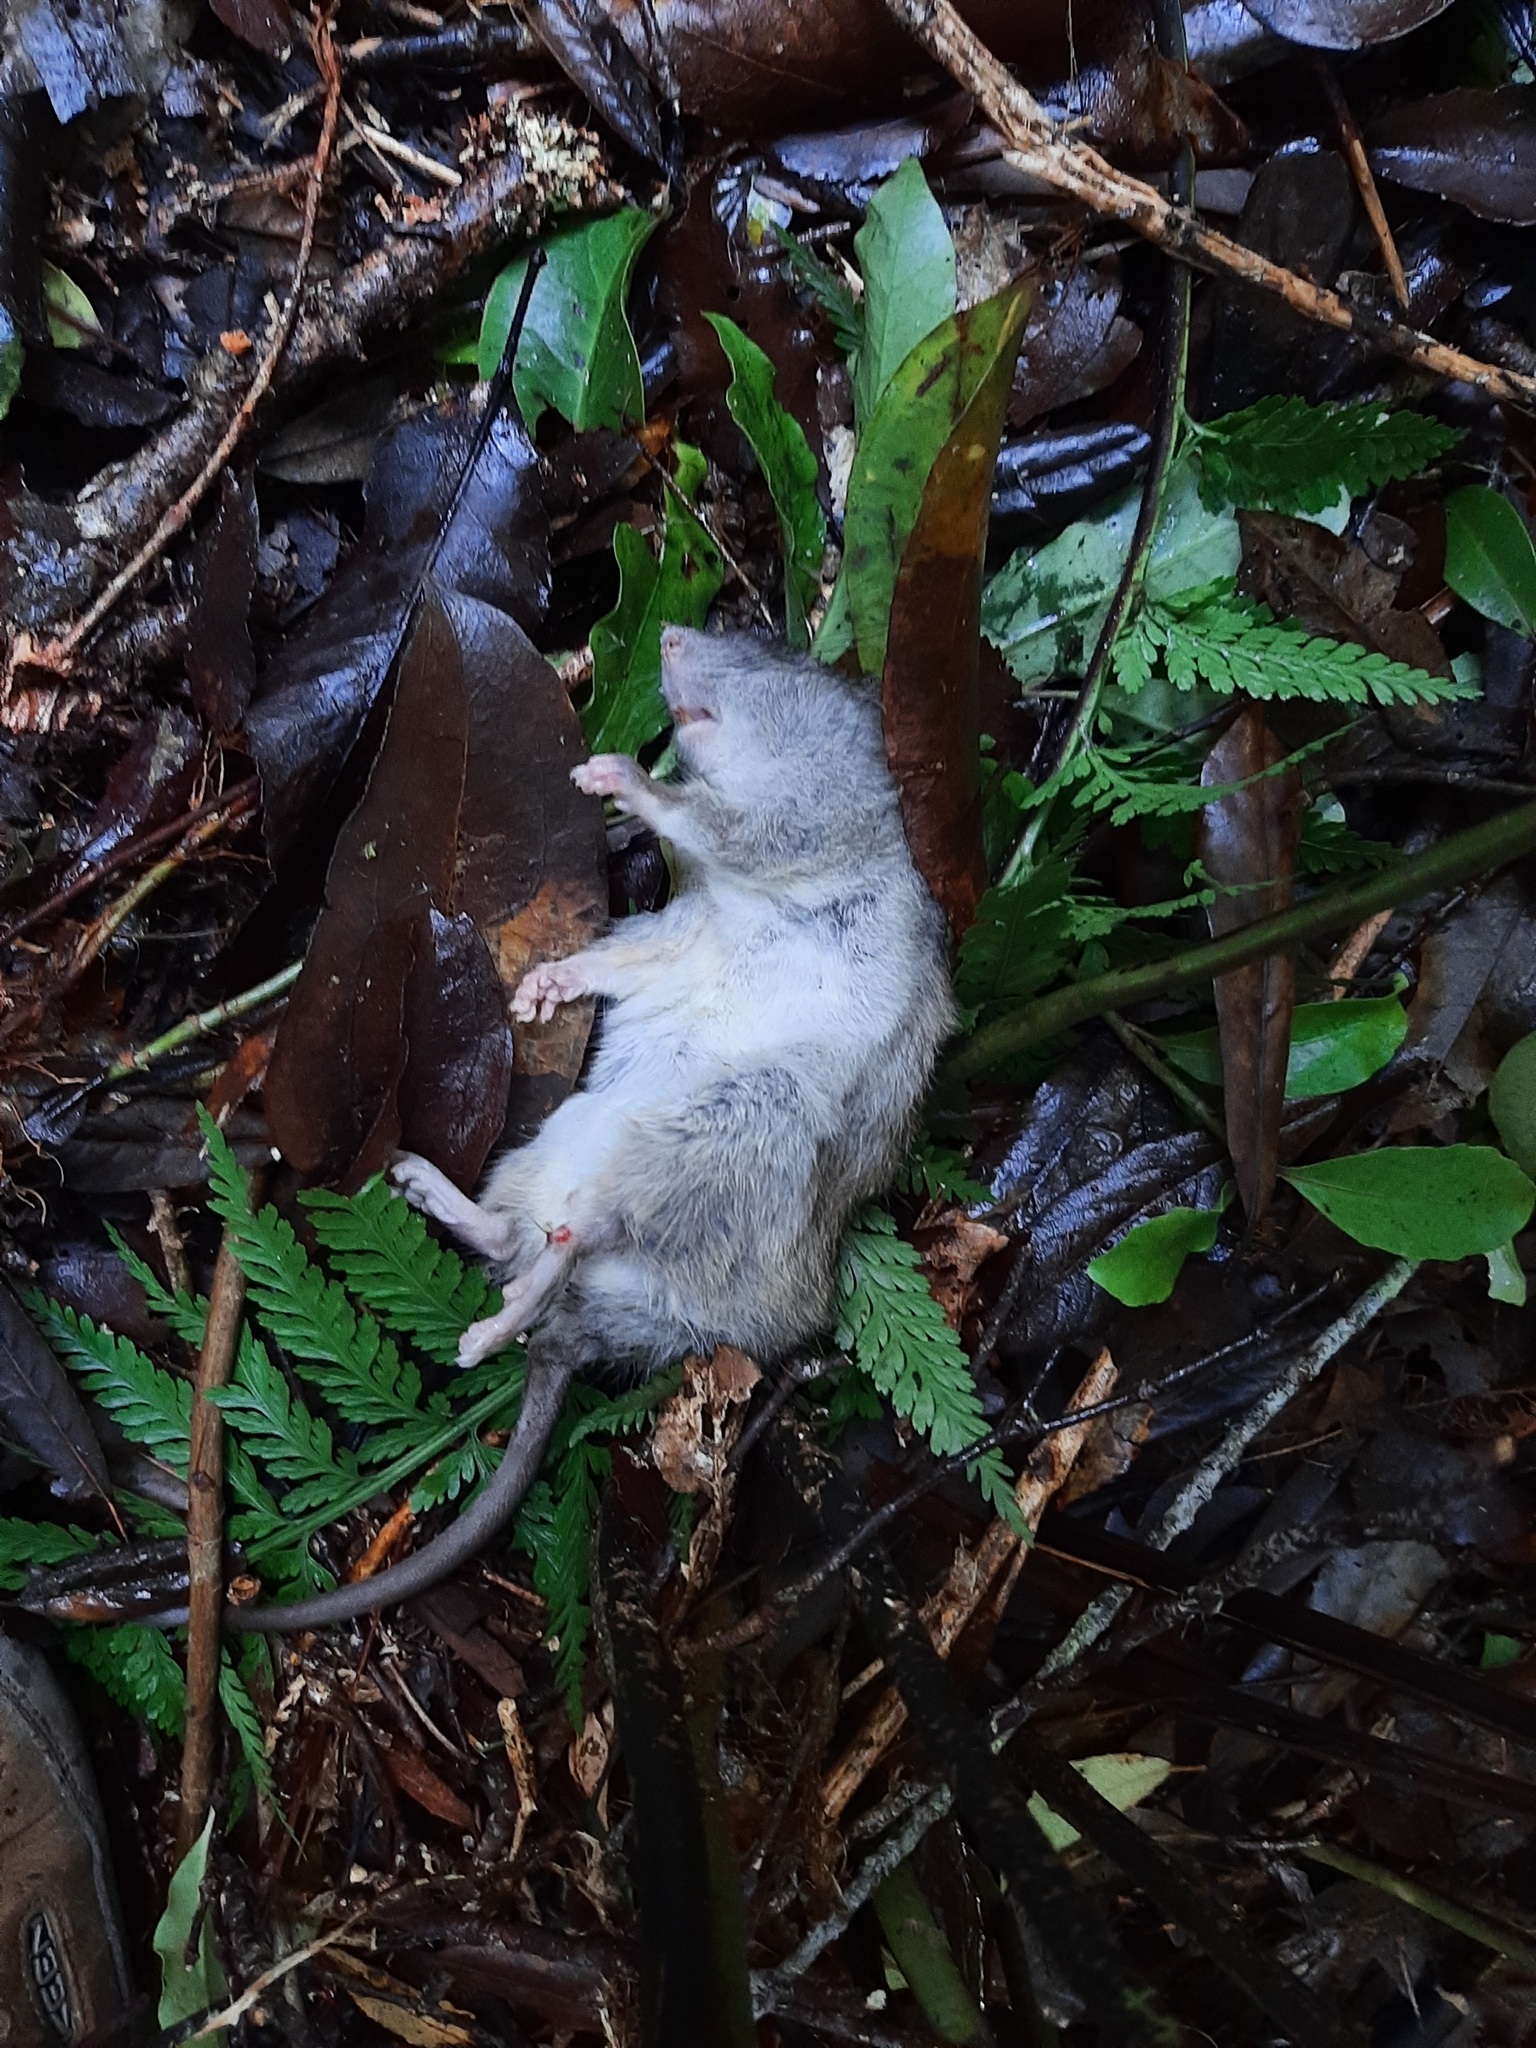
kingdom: Animalia
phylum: Chordata
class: Mammalia
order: Rodentia
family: Muridae
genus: Rattus
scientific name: Rattus rattus
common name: Black rat
